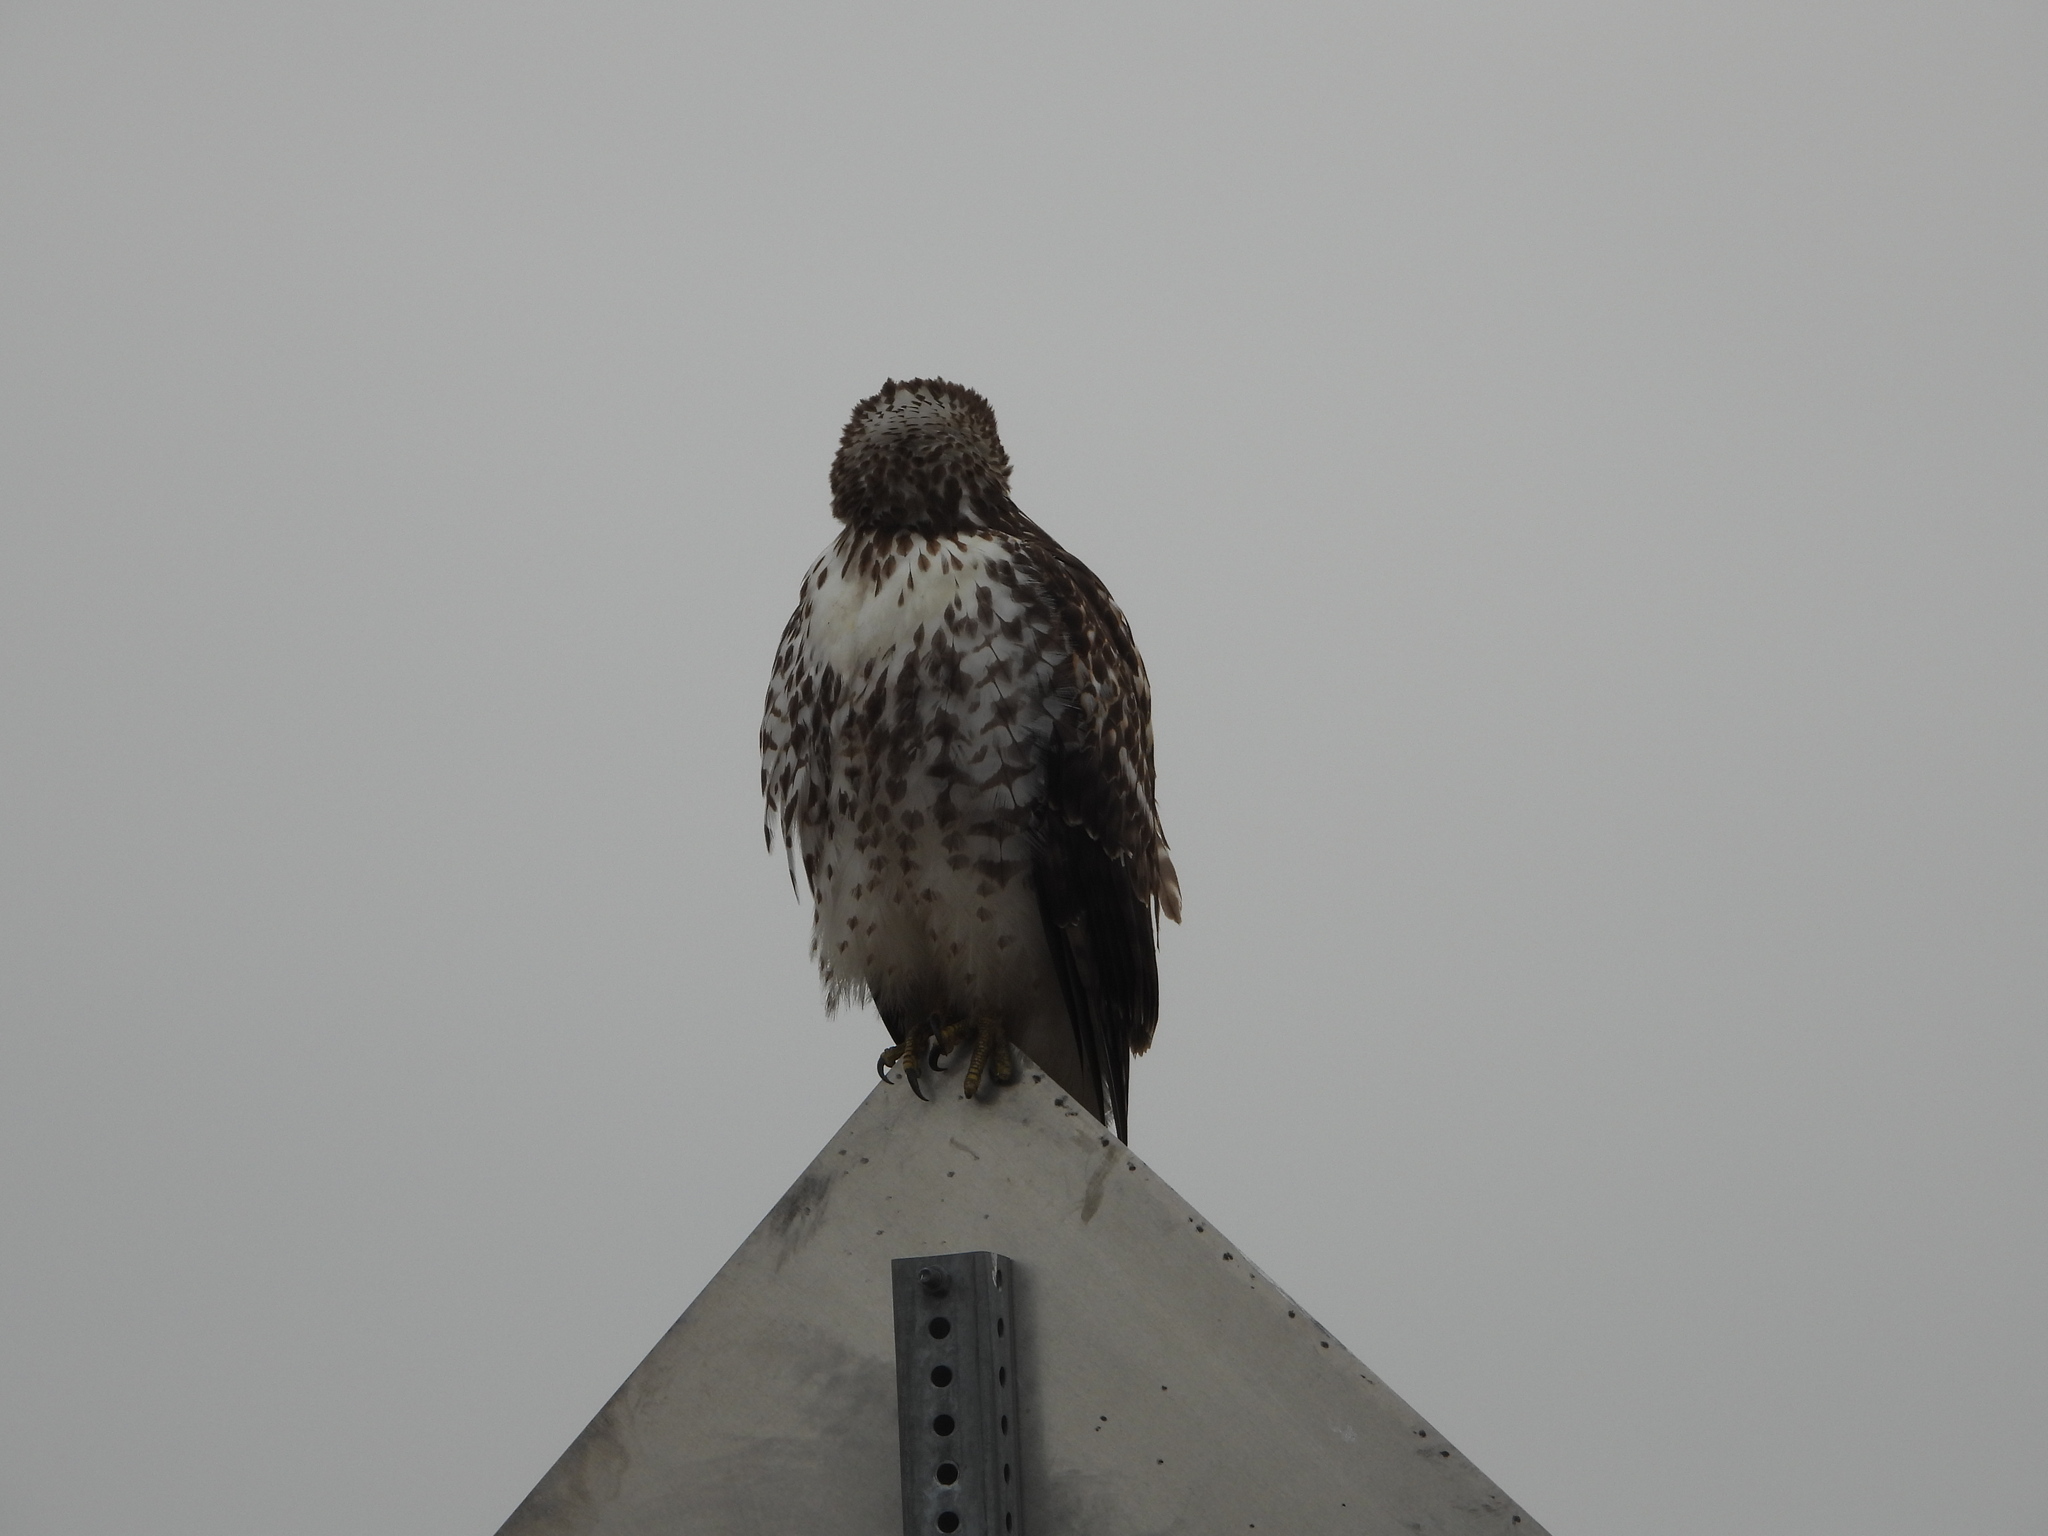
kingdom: Animalia
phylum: Chordata
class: Aves
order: Accipitriformes
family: Accipitridae
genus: Buteo
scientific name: Buteo jamaicensis
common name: Red-tailed hawk
